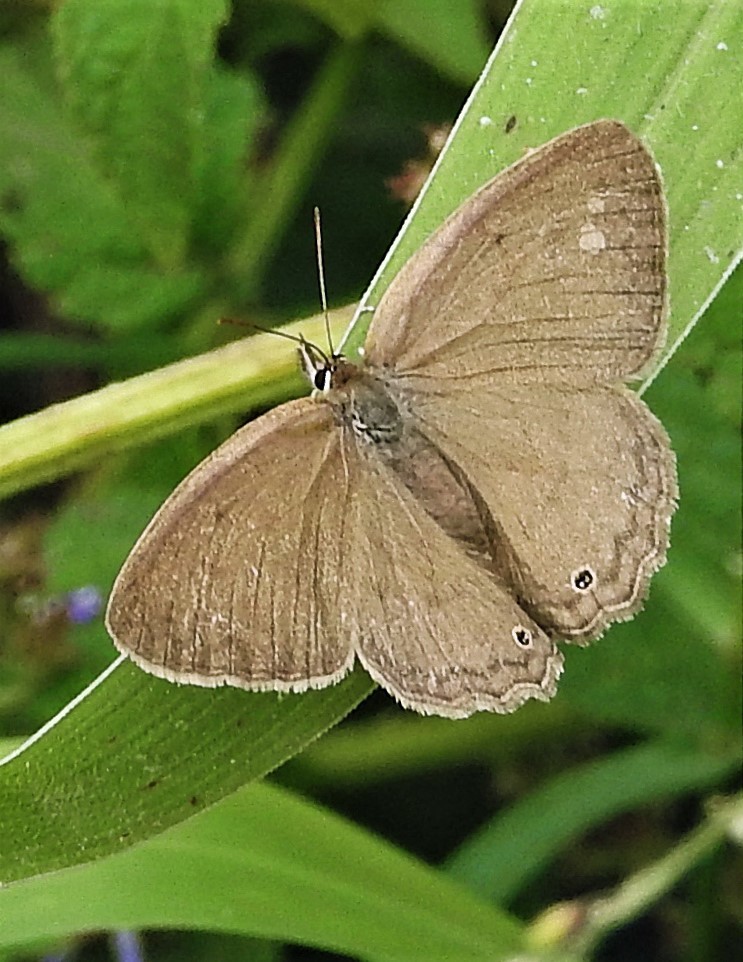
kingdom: Animalia
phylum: Arthropoda
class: Insecta
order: Lepidoptera
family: Nymphalidae
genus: Euptychia
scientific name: Euptychia Cissia eous
